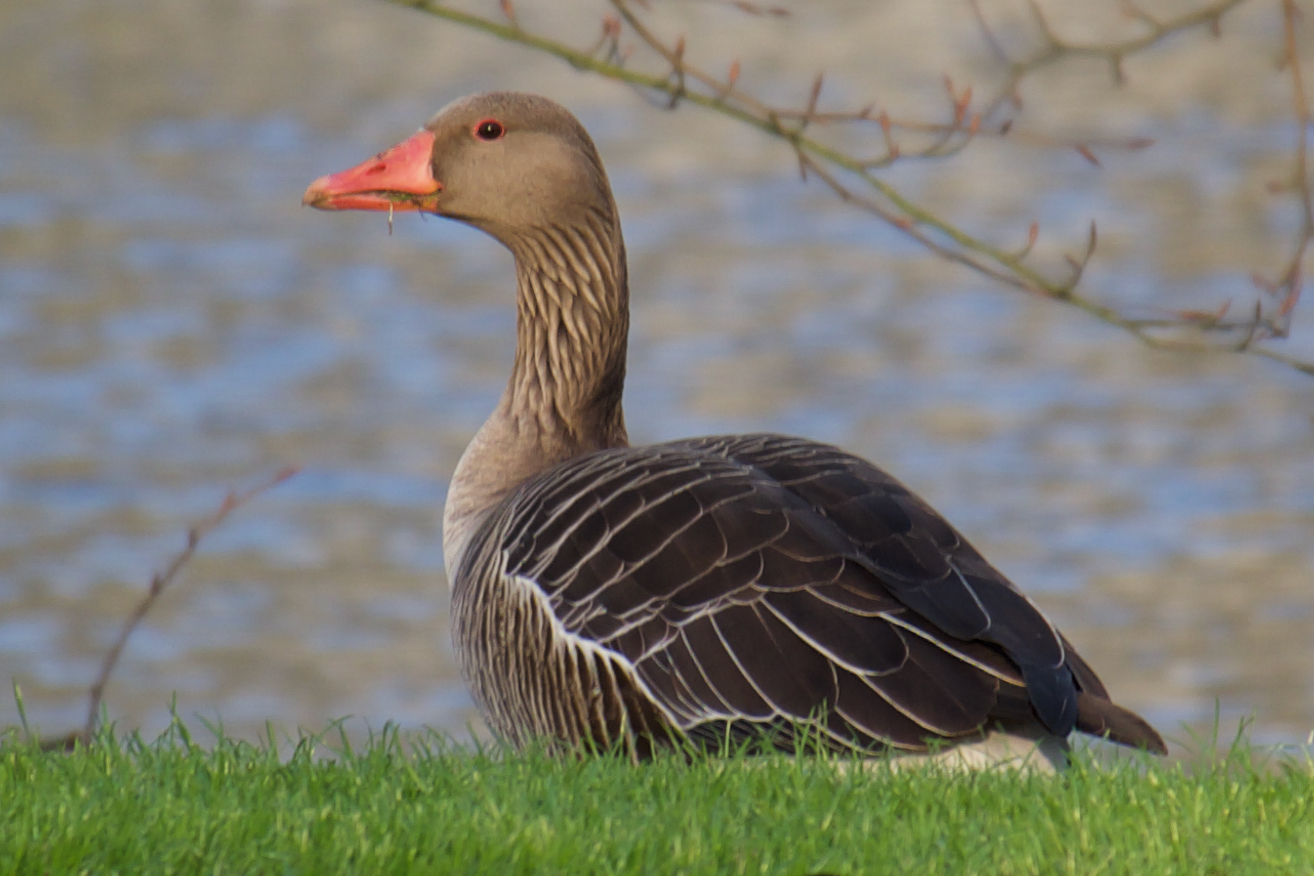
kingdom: Animalia
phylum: Chordata
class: Aves
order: Anseriformes
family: Anatidae
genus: Anser
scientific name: Anser anser
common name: Greylag goose
